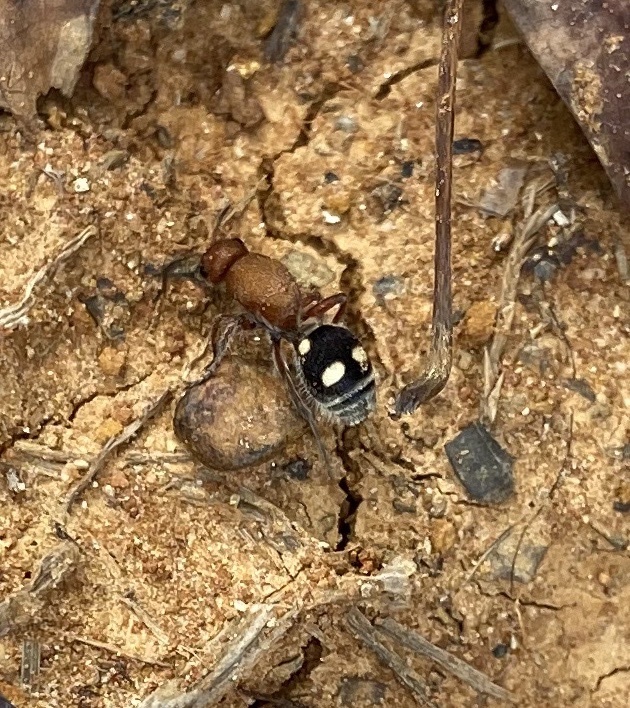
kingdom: Animalia
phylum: Arthropoda
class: Insecta
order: Hymenoptera
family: Mutillidae
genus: Dasymutilla
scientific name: Dasymutilla
